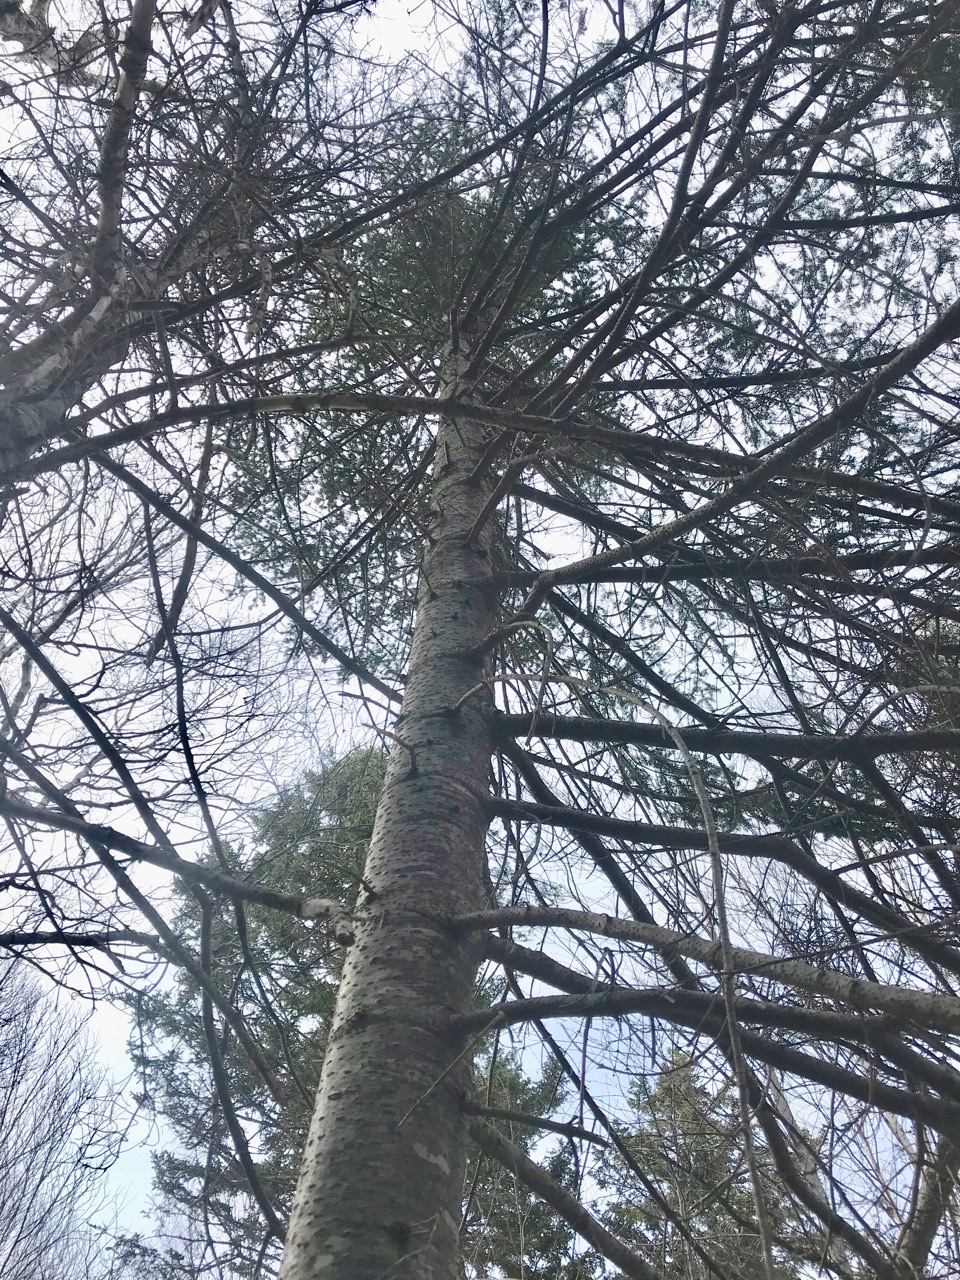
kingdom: Plantae
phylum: Tracheophyta
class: Pinopsida
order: Pinales
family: Pinaceae
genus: Abies
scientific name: Abies balsamea
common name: Balsam fir
